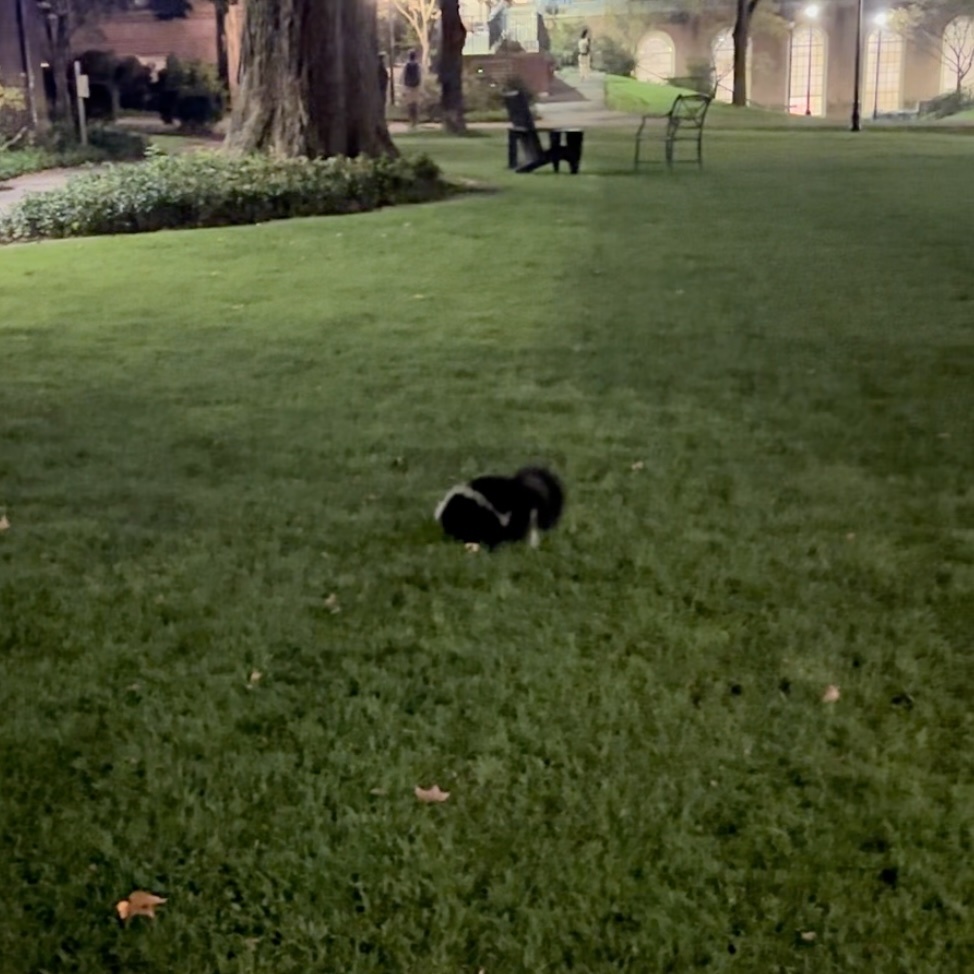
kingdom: Animalia
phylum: Chordata
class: Mammalia
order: Carnivora
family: Mephitidae
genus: Mephitis
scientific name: Mephitis mephitis
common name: Striped skunk
